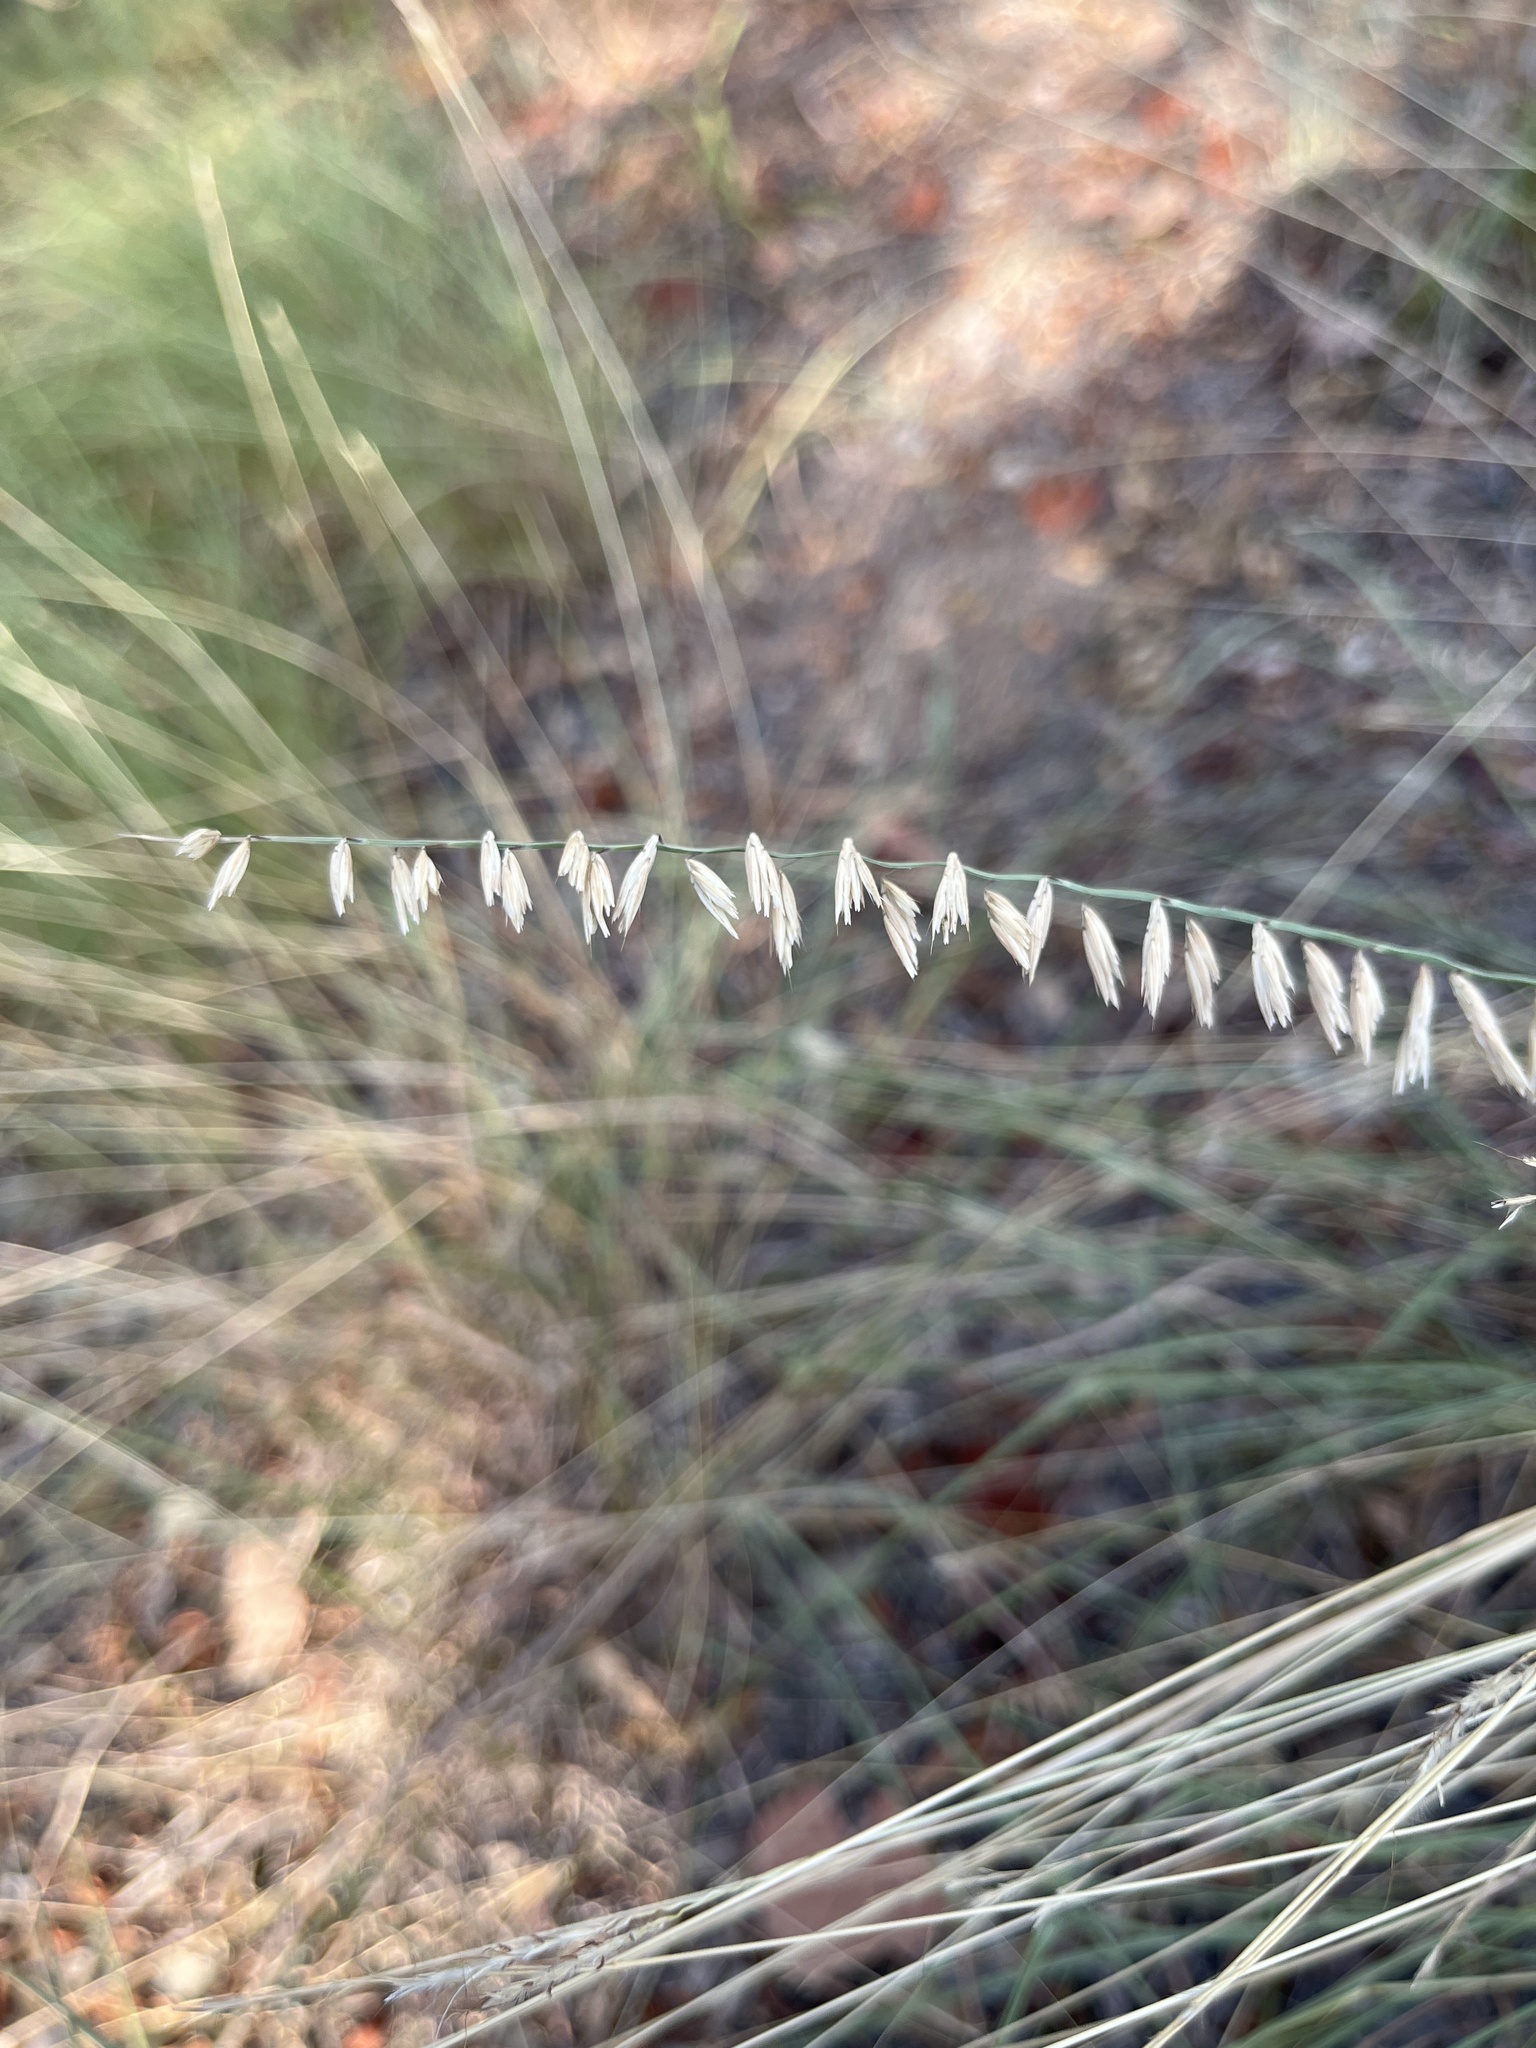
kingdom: Plantae
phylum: Tracheophyta
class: Liliopsida
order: Poales
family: Poaceae
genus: Bouteloua
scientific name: Bouteloua curtipendula
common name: Side-oats grama
